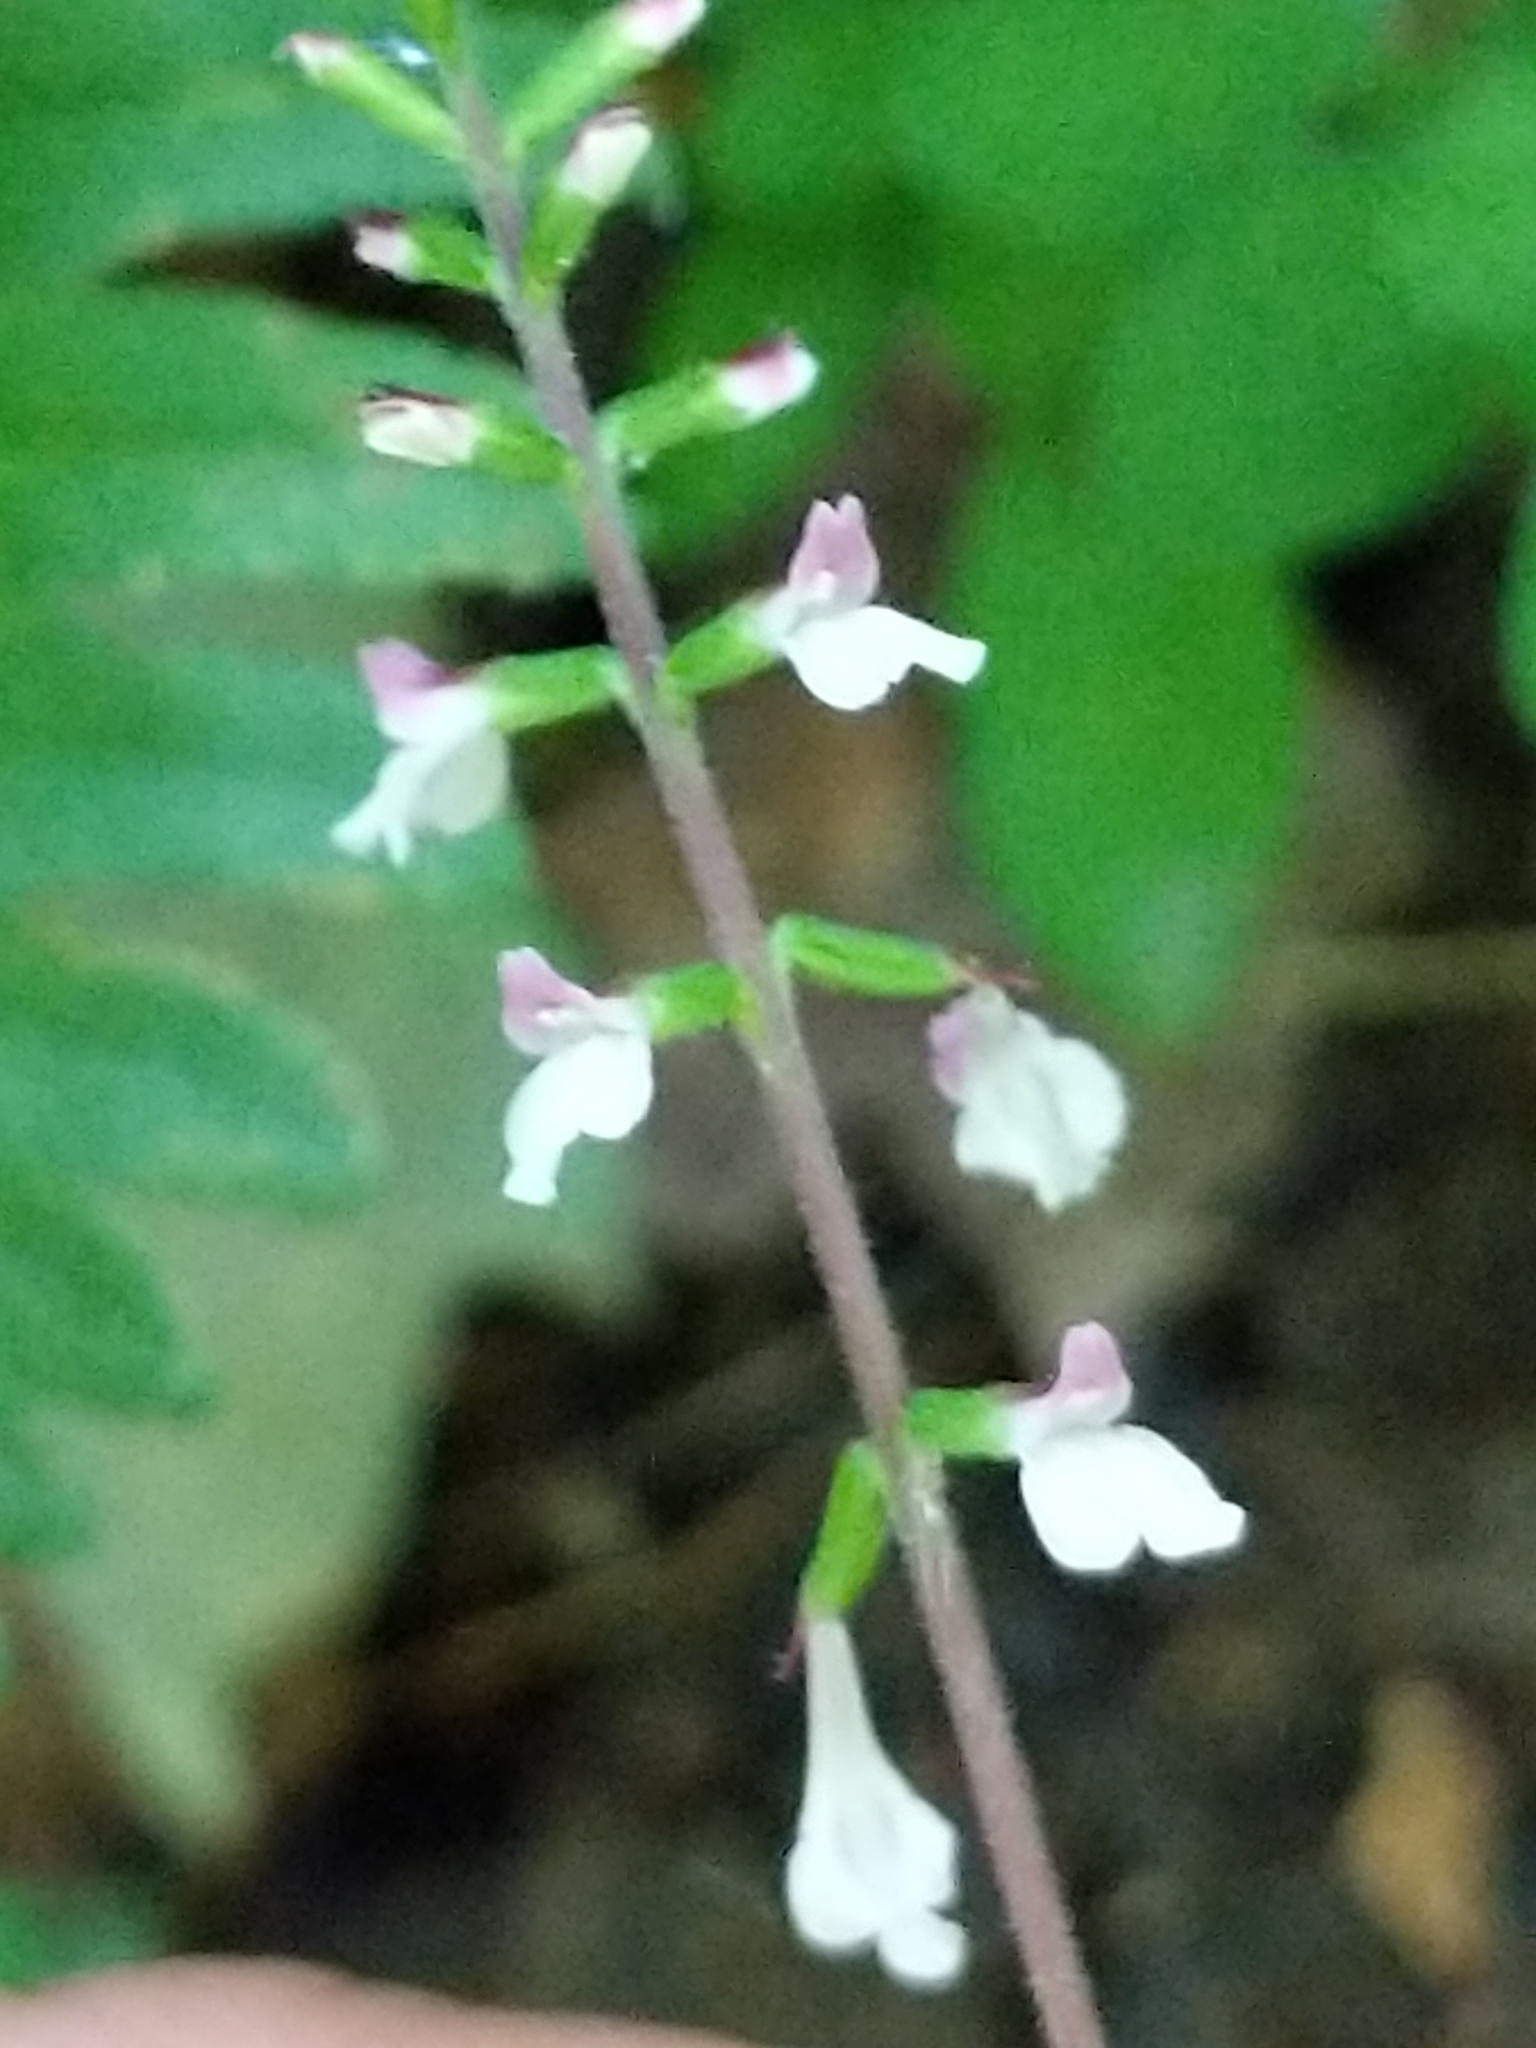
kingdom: Plantae
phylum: Tracheophyta
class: Magnoliopsida
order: Lamiales
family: Phrymaceae
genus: Phryma
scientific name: Phryma leptostachya
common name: American lopseed
